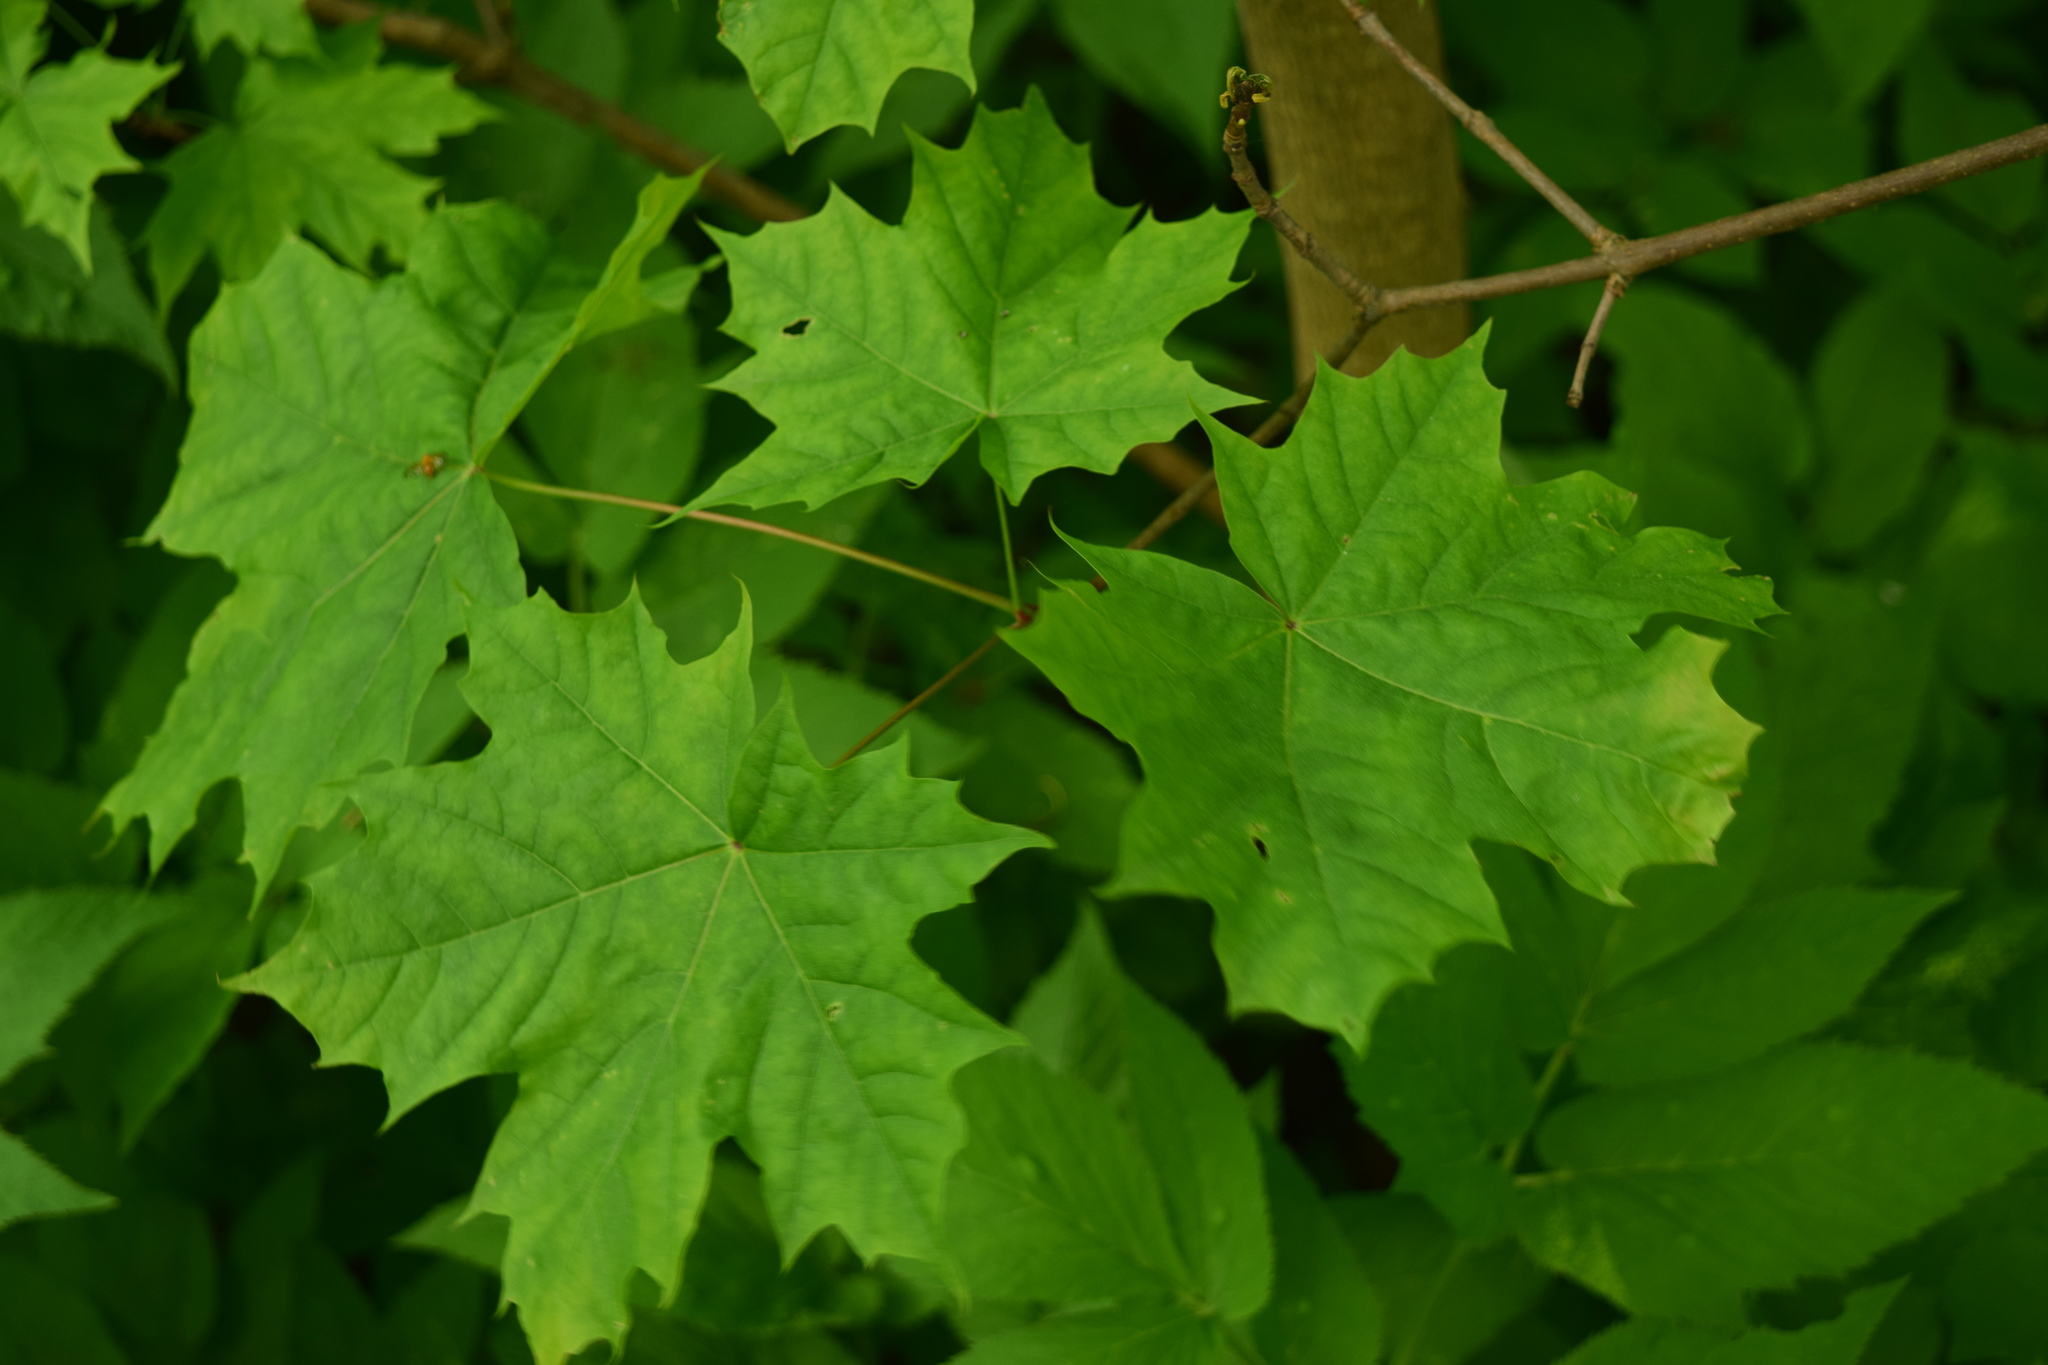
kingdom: Plantae
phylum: Tracheophyta
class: Magnoliopsida
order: Sapindales
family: Sapindaceae
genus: Acer
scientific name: Acer platanoides
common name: Norway maple
